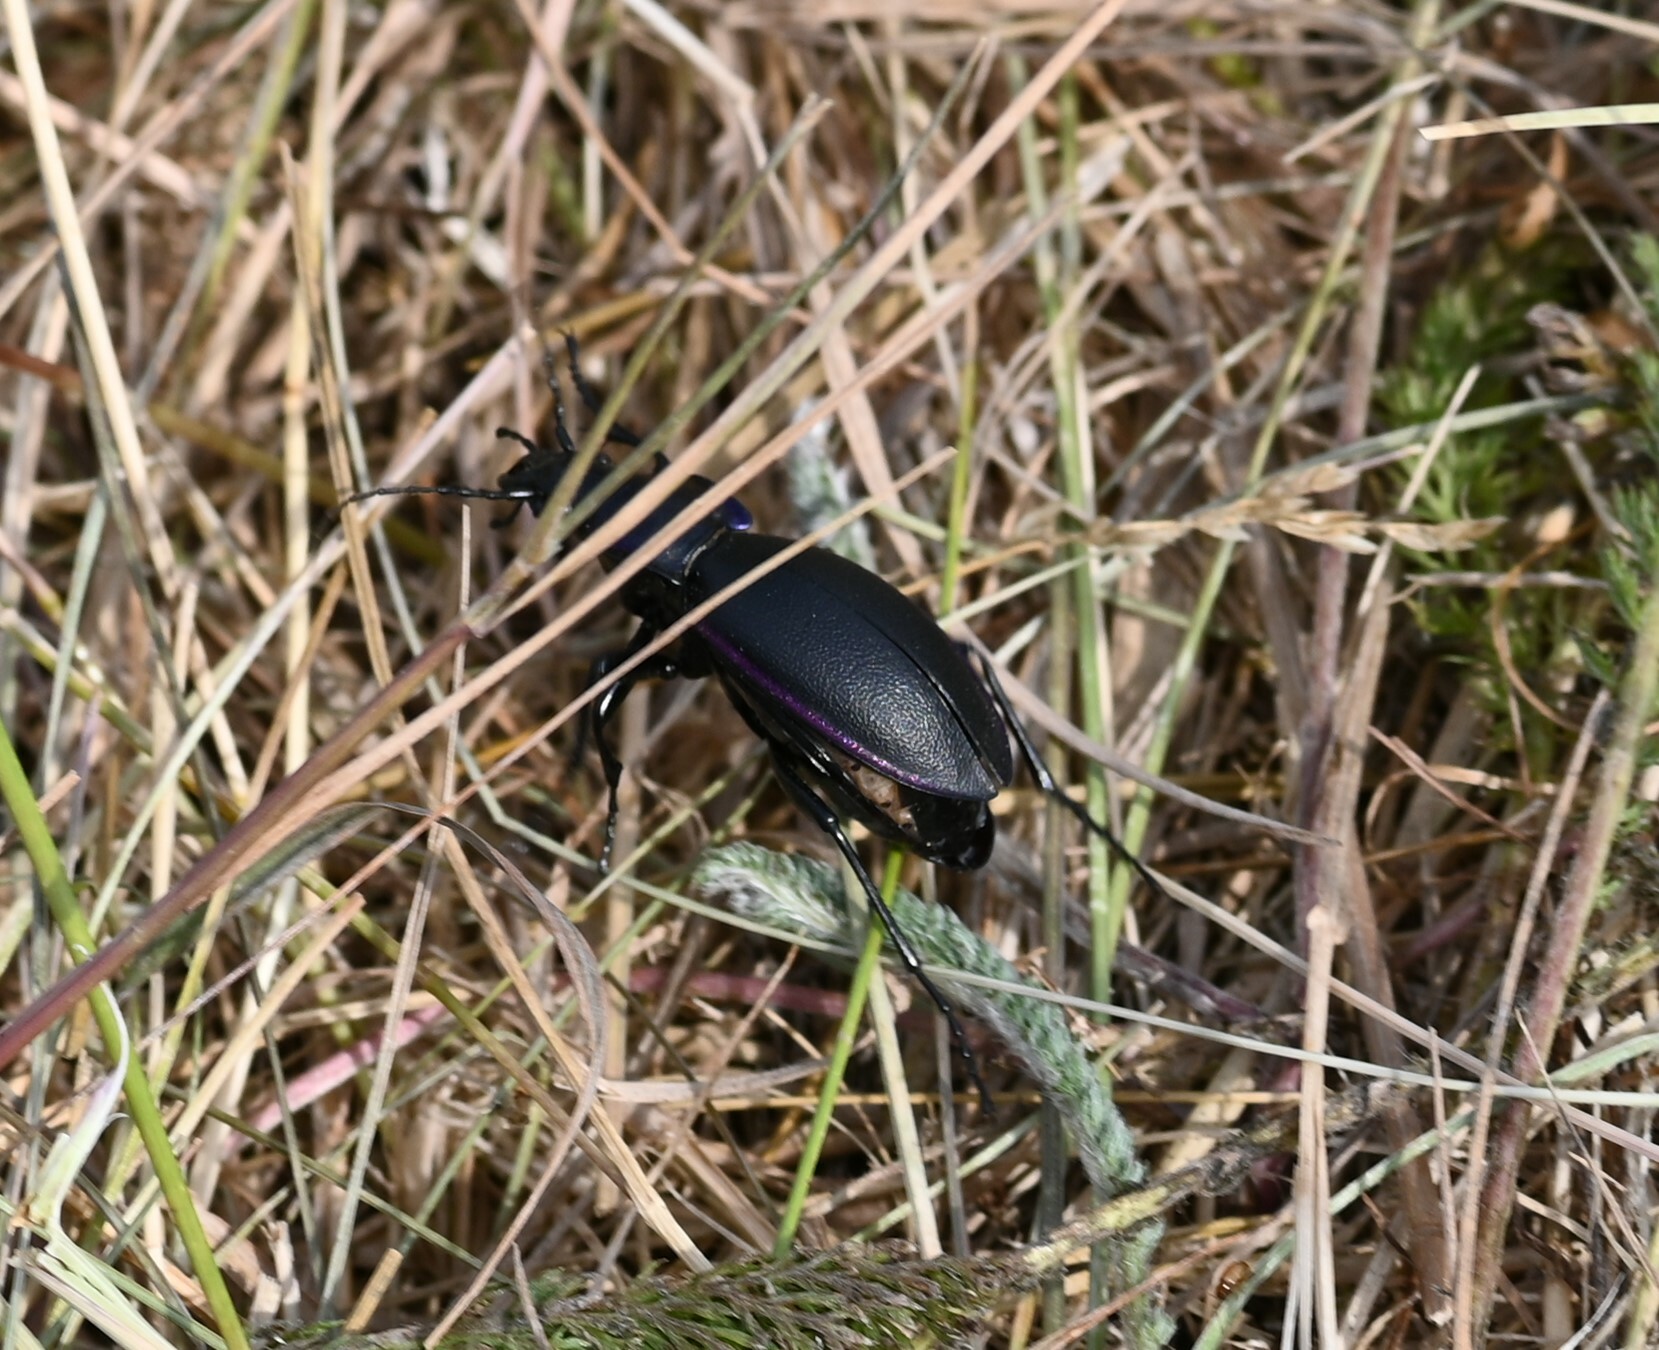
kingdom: Animalia
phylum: Arthropoda
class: Insecta
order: Coleoptera
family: Carabidae
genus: Carabus
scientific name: Carabus violaceus
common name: Violet ground beetle
